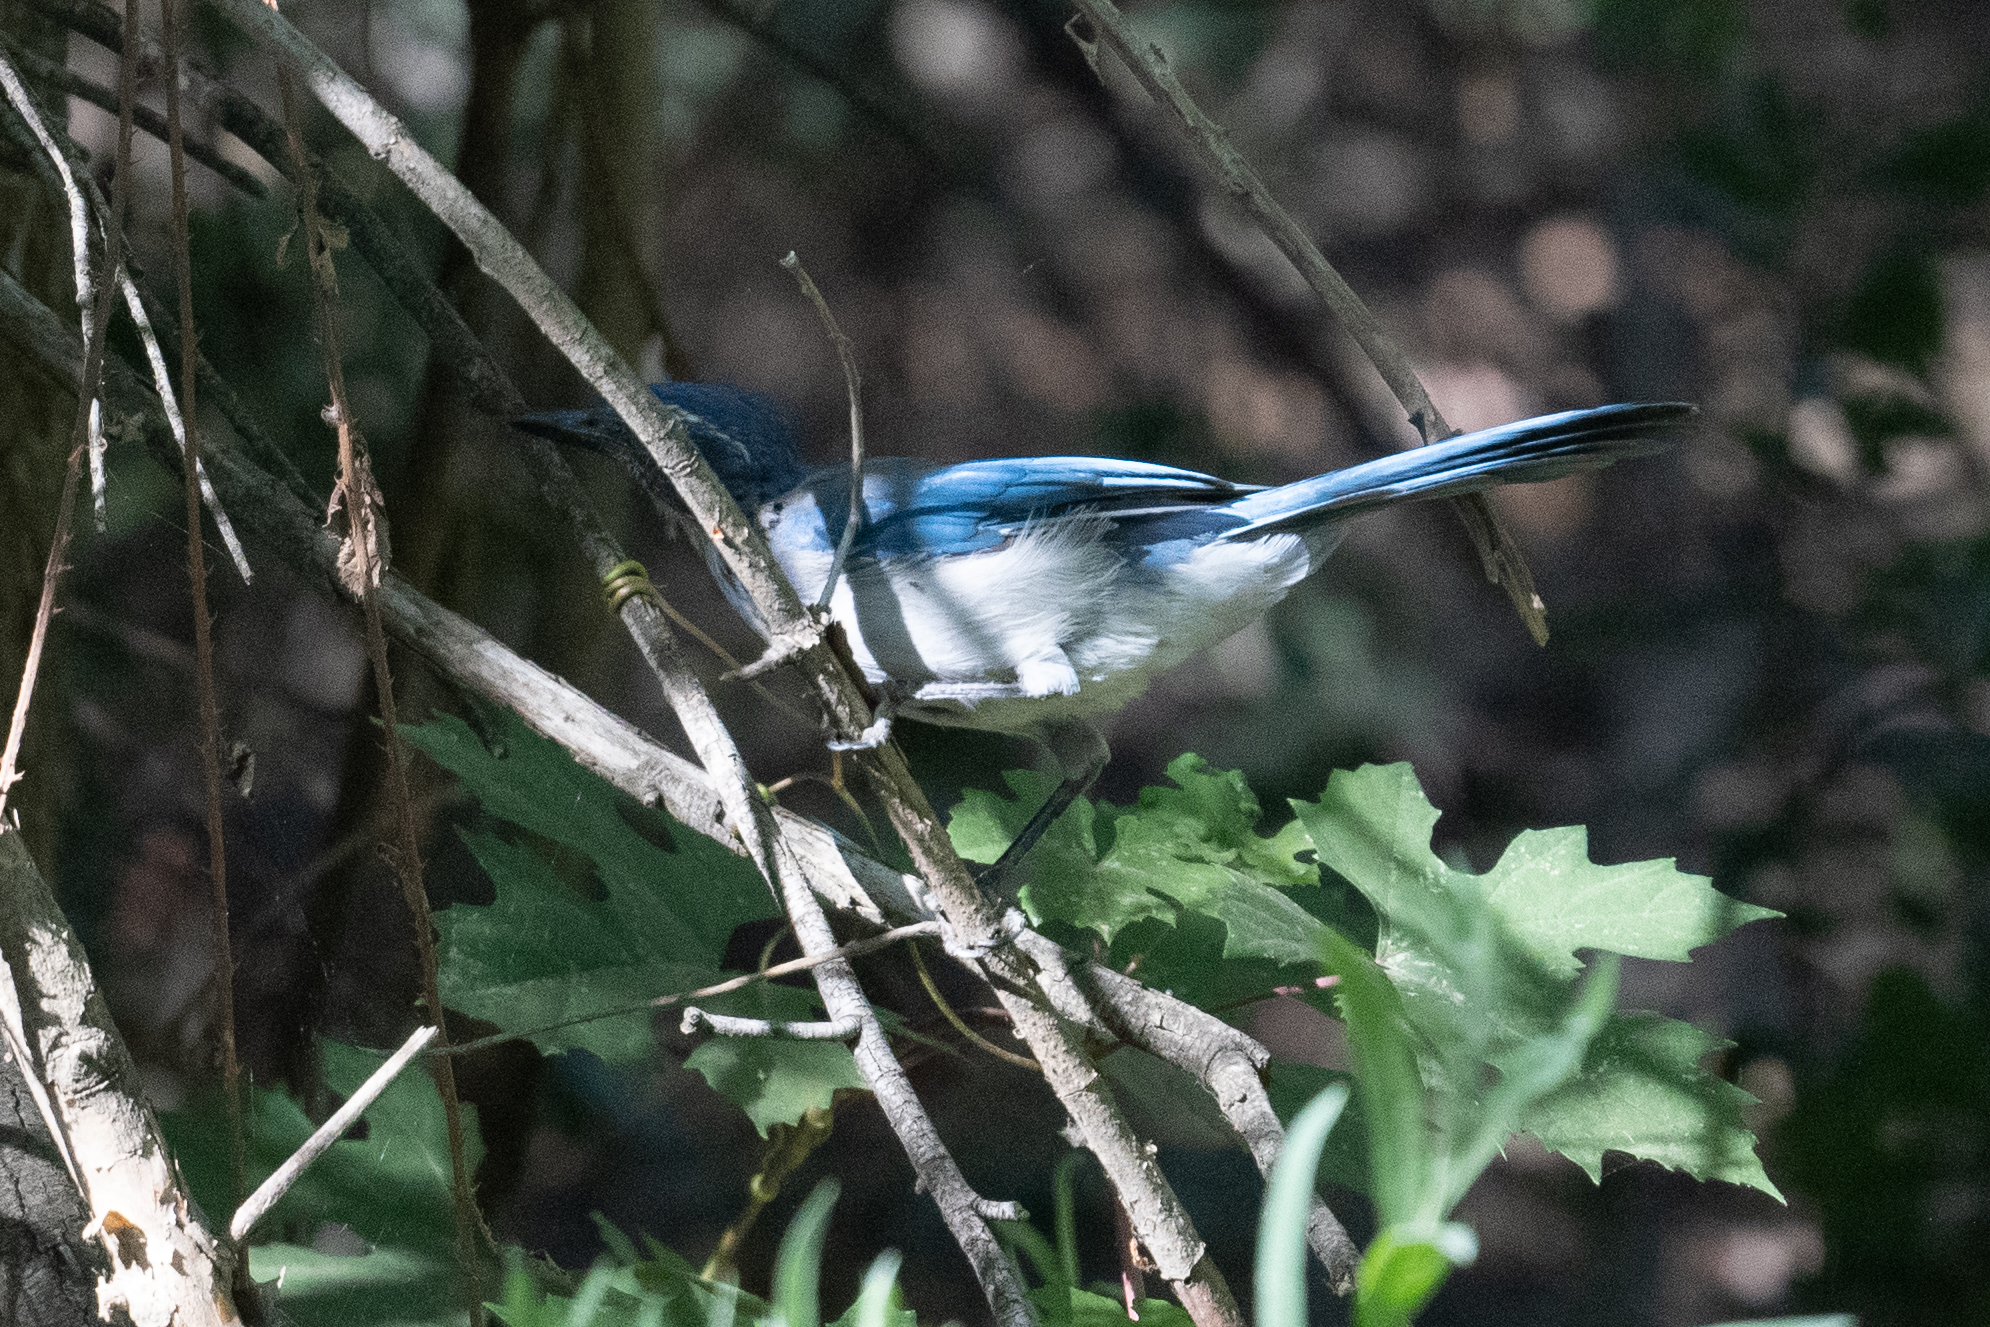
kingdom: Animalia
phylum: Chordata
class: Aves
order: Passeriformes
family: Corvidae
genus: Aphelocoma
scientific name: Aphelocoma californica
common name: California scrub-jay
